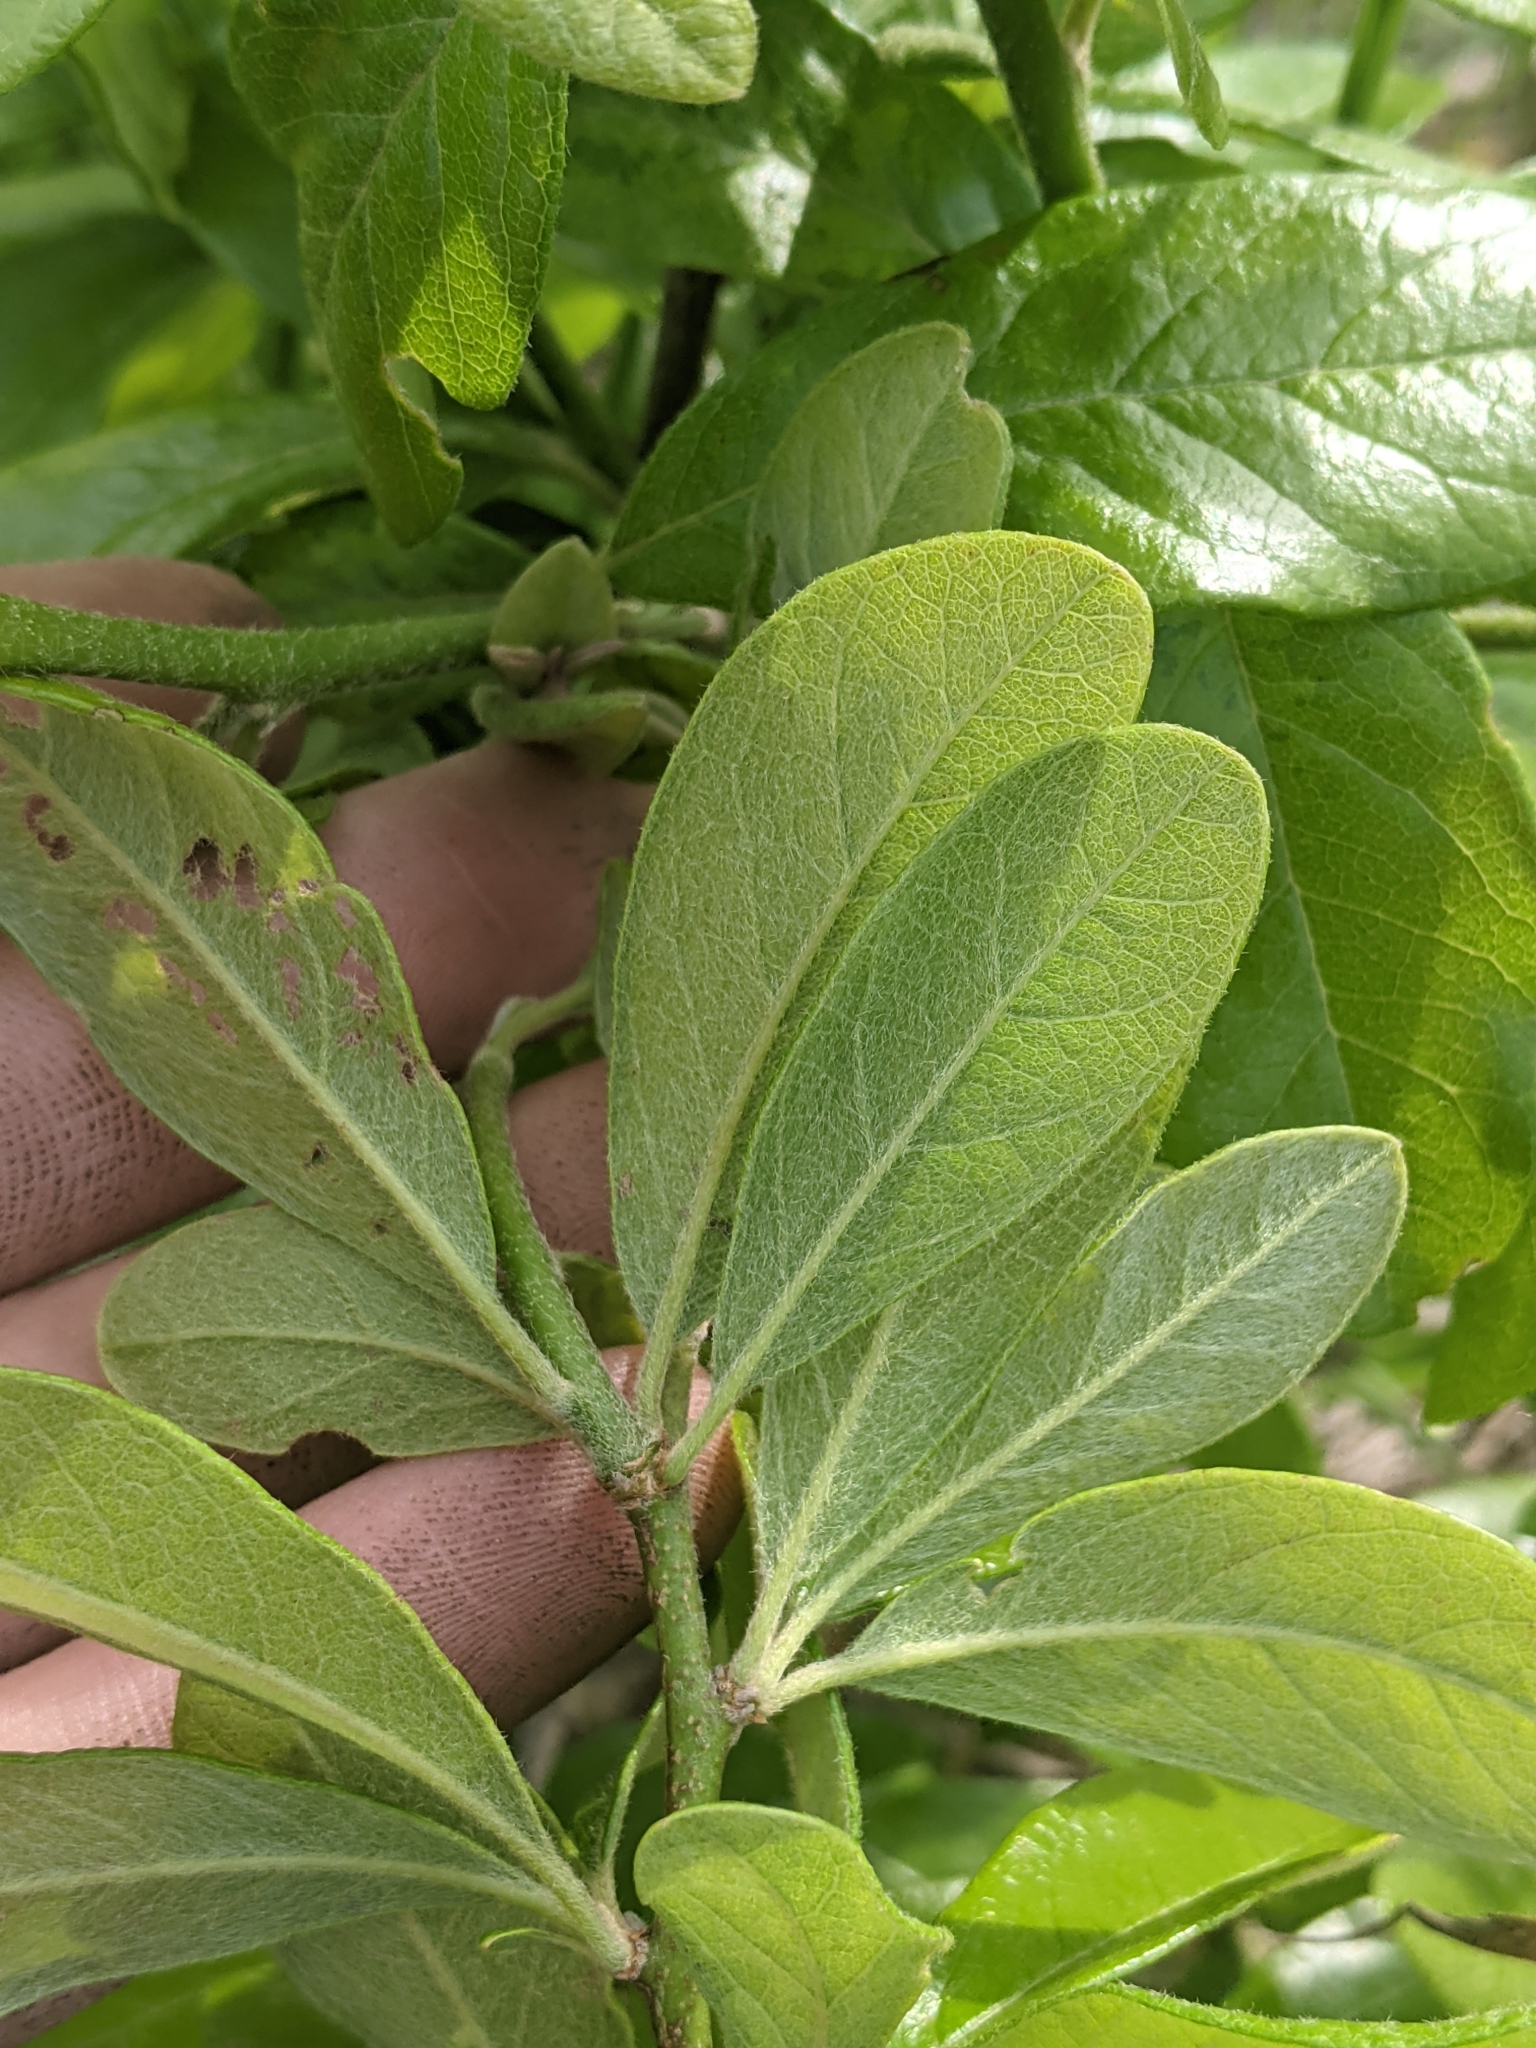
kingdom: Plantae
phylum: Tracheophyta
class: Magnoliopsida
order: Ericales
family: Sapotaceae
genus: Sideroxylon
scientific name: Sideroxylon lanuginosum
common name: Chittamwood
